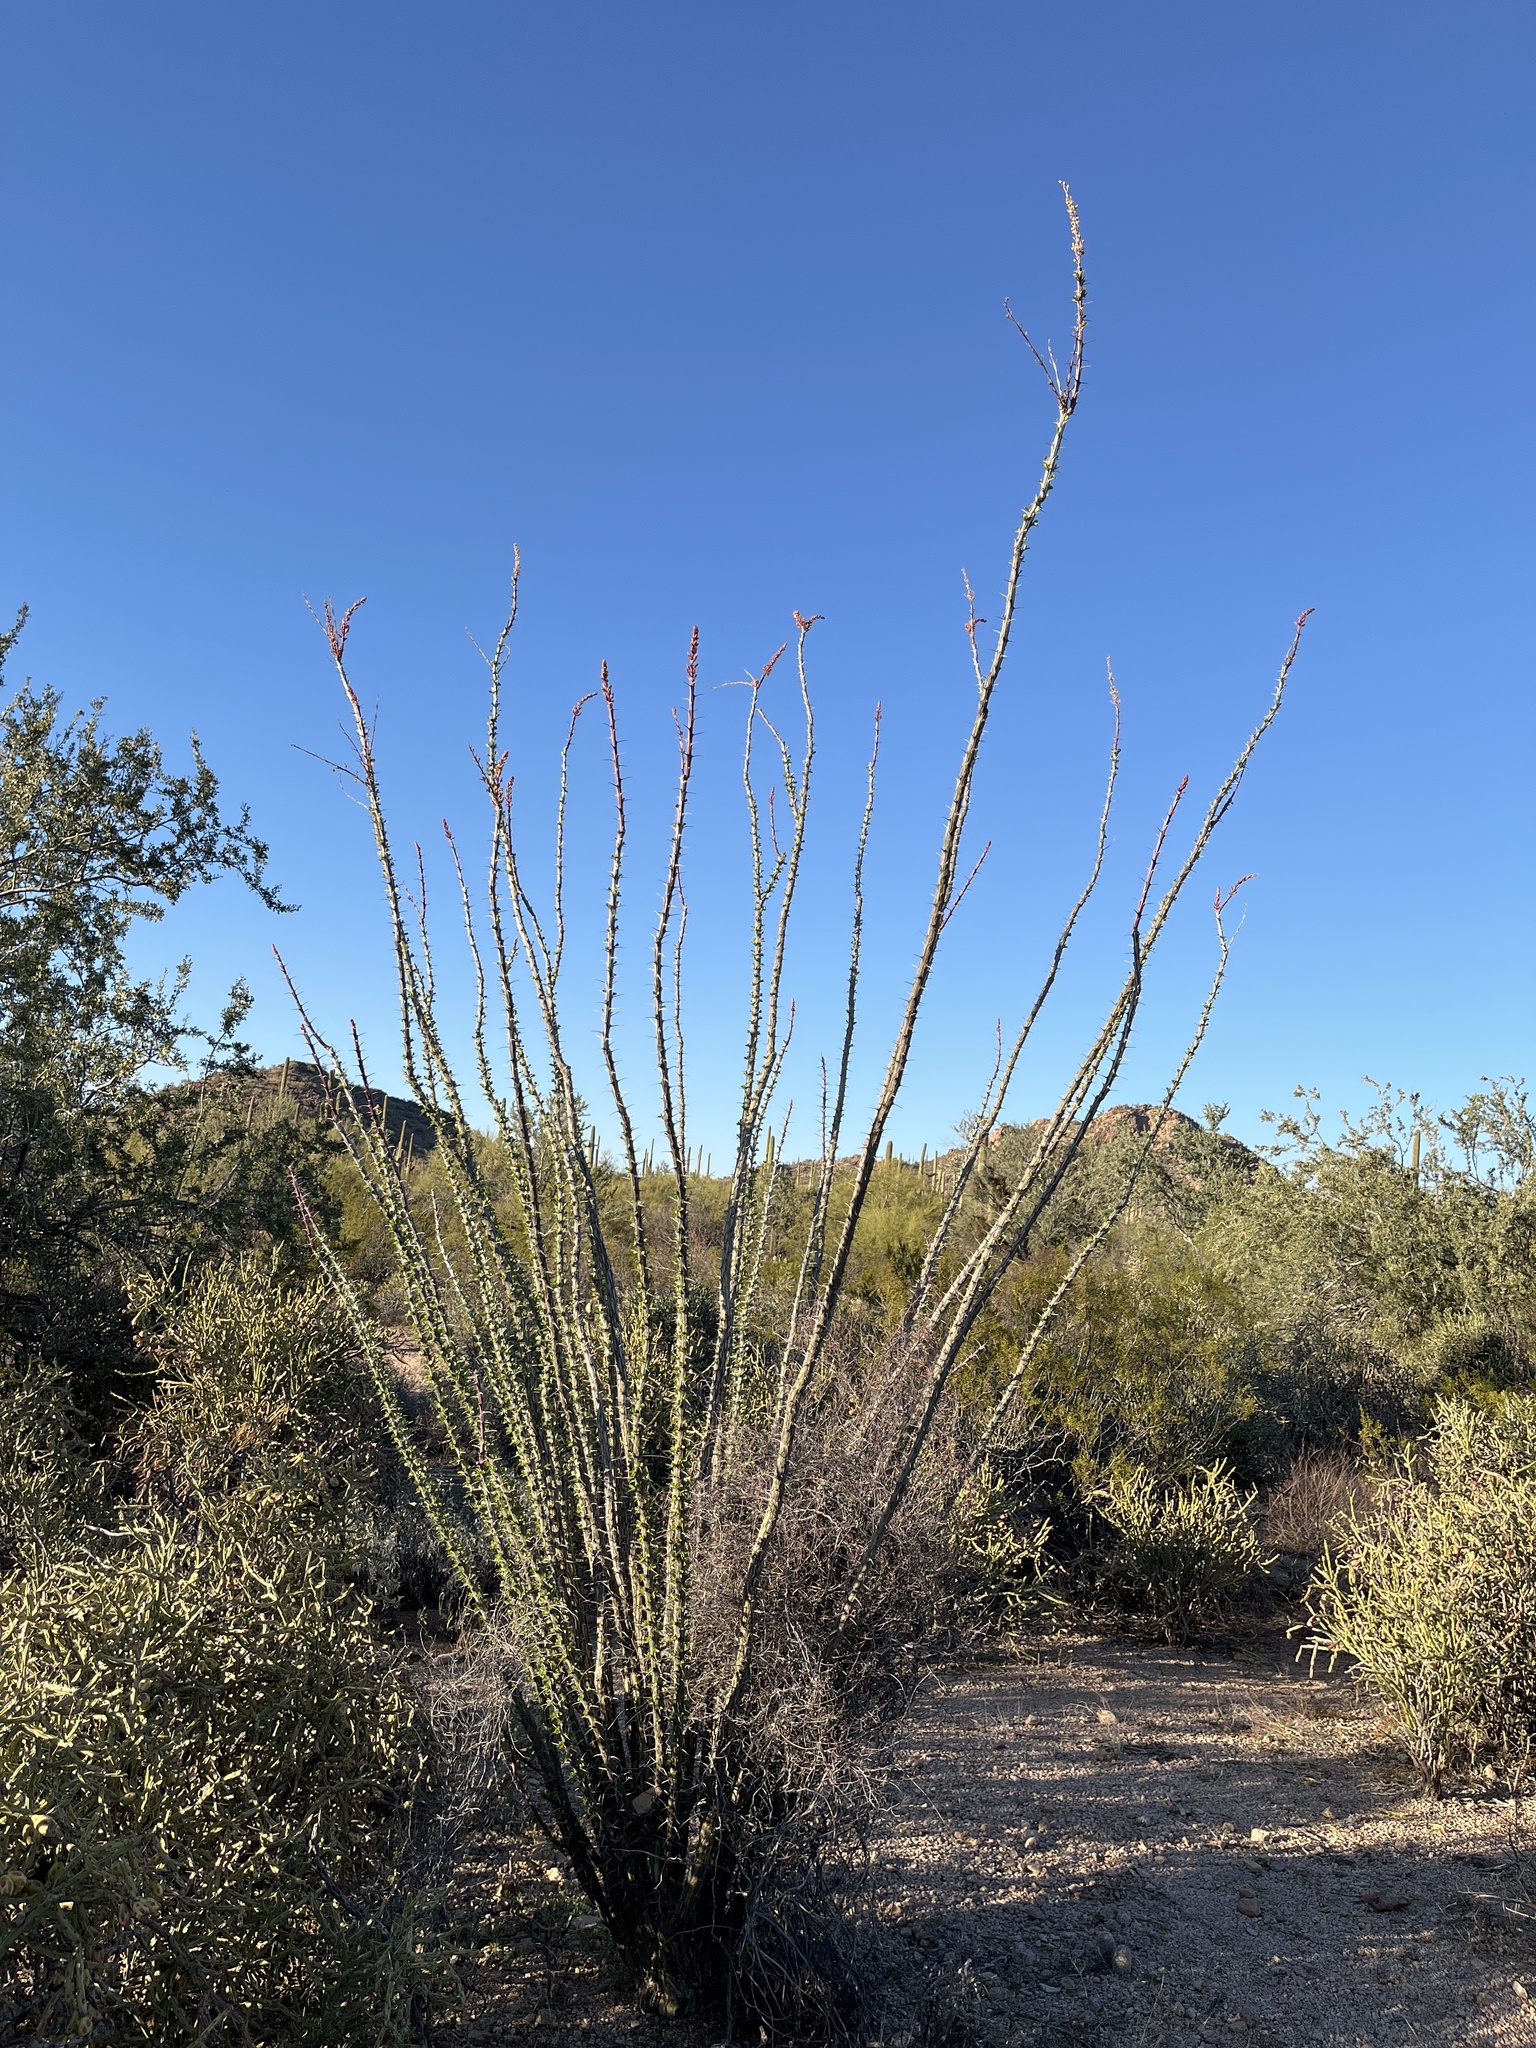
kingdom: Plantae
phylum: Tracheophyta
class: Magnoliopsida
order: Ericales
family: Fouquieriaceae
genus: Fouquieria
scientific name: Fouquieria splendens
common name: Vine-cactus
